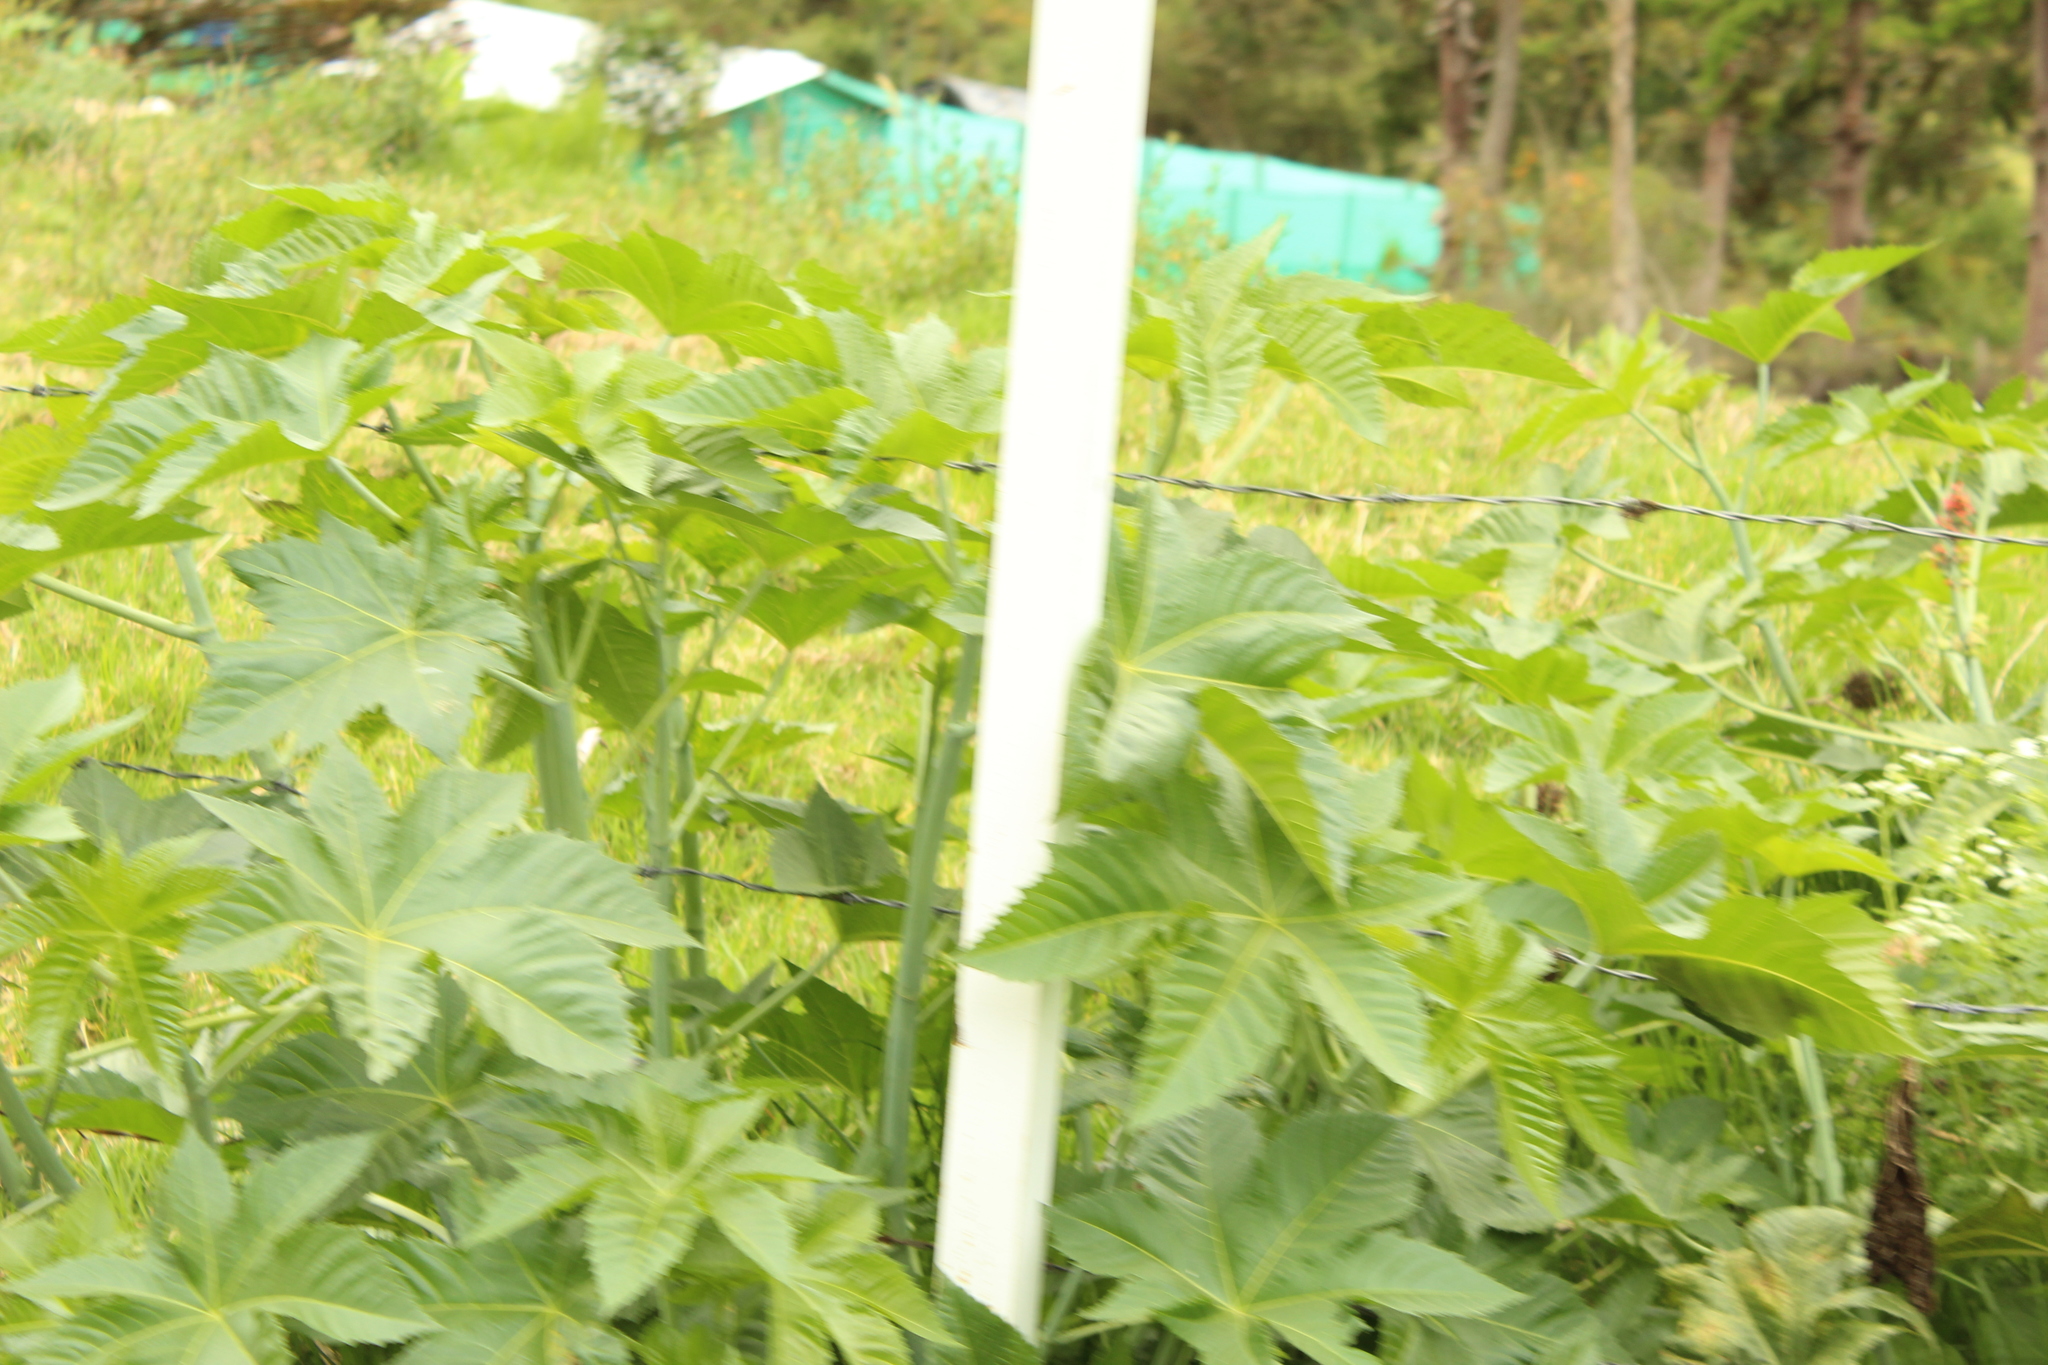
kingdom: Plantae
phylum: Tracheophyta
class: Magnoliopsida
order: Malpighiales
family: Euphorbiaceae
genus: Ricinus
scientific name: Ricinus communis
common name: Castor-oil-plant
